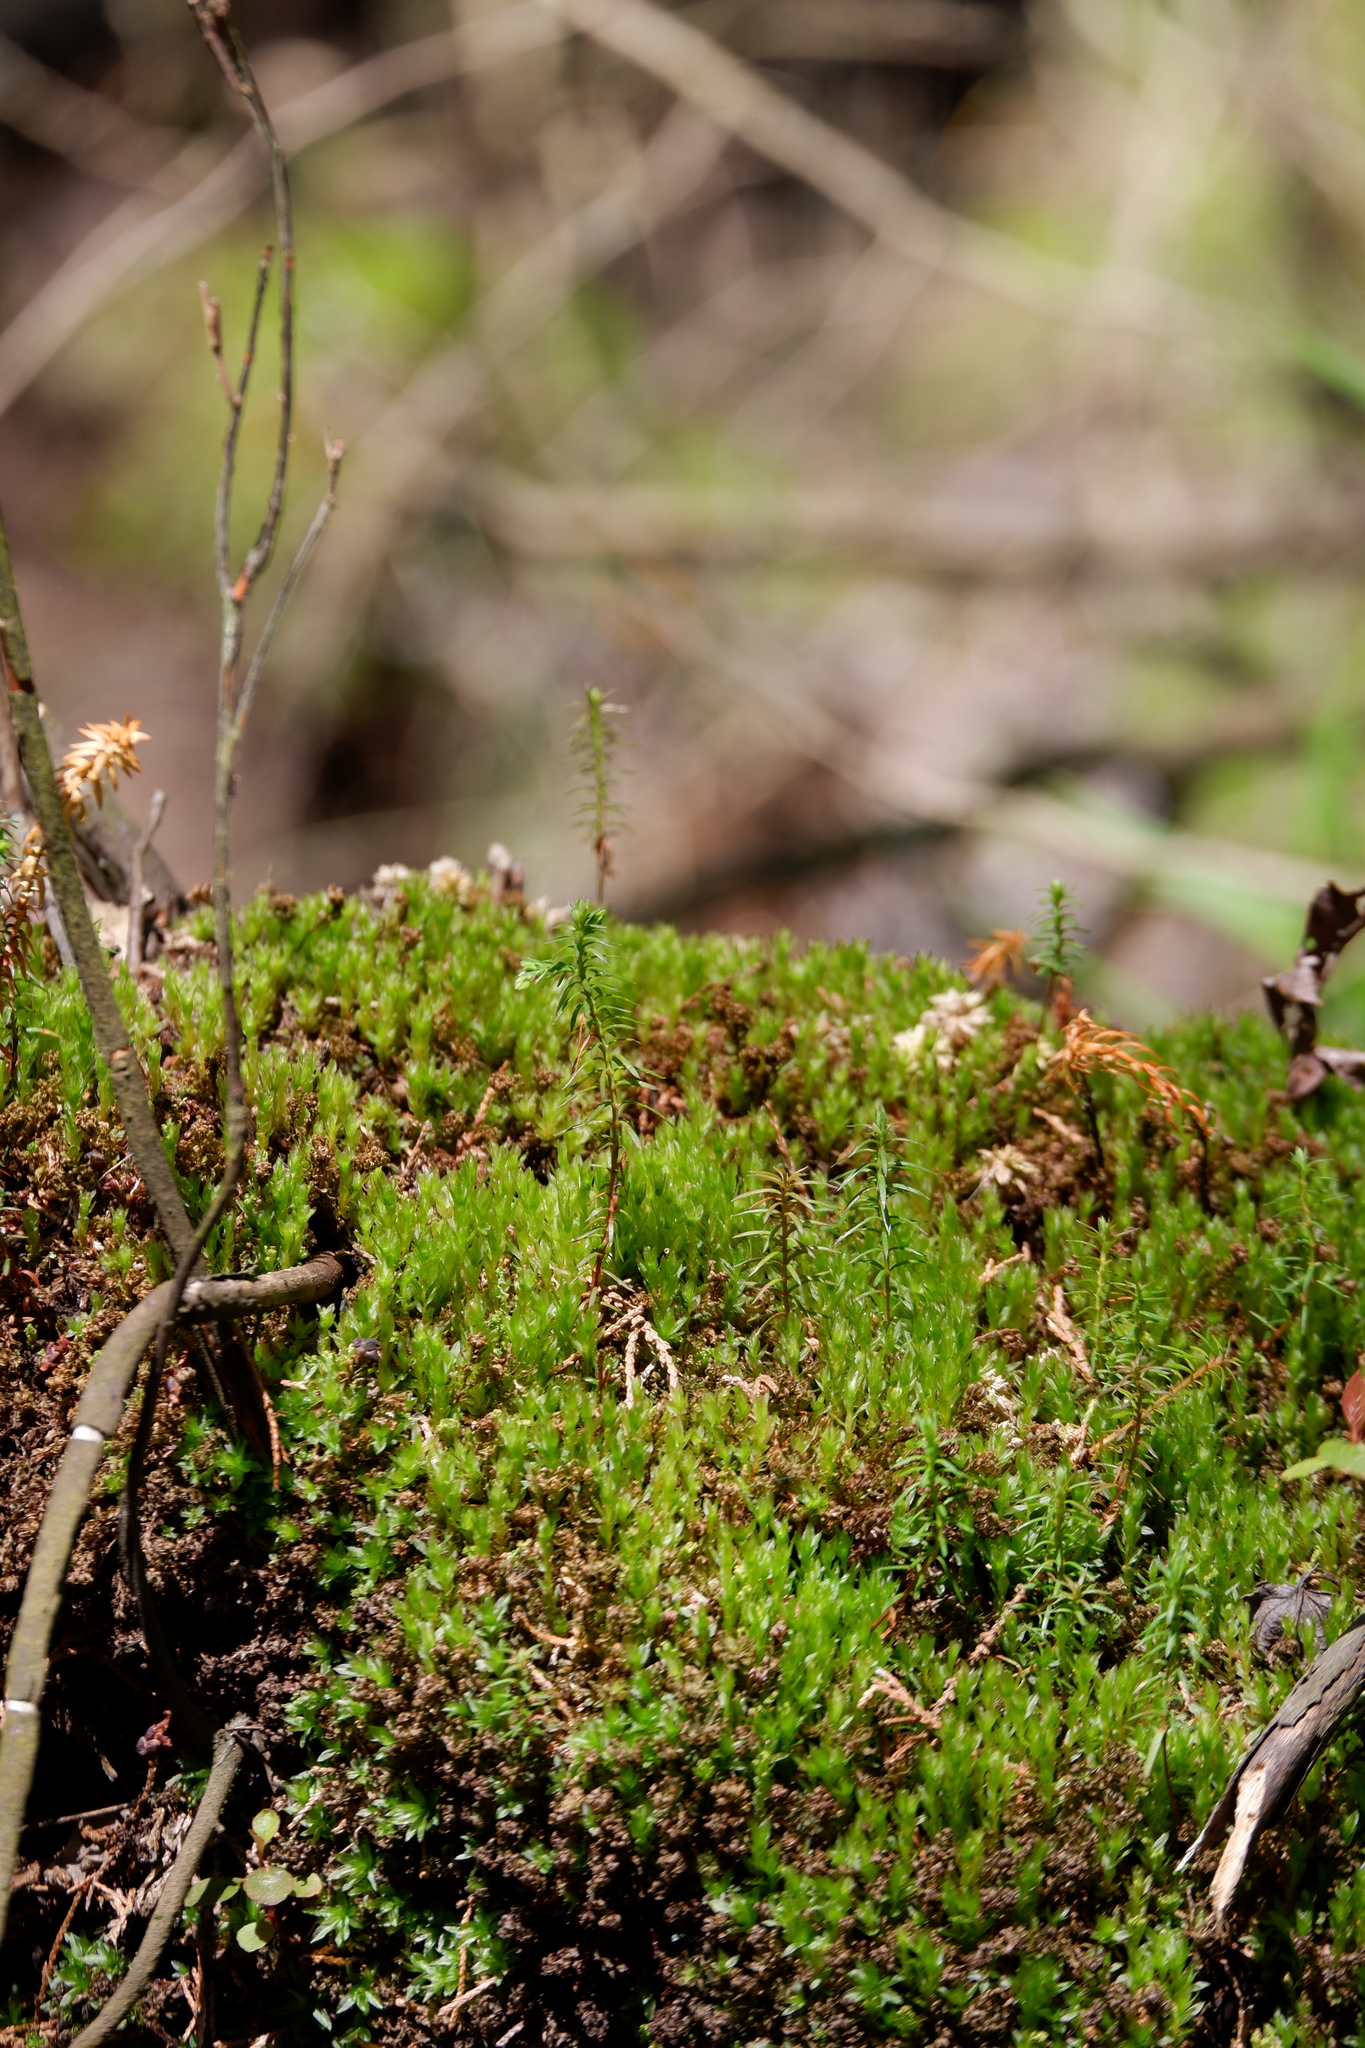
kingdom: Plantae
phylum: Tracheophyta
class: Pinopsida
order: Pinales
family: Cupressaceae
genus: Chamaecyparis
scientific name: Chamaecyparis thyoides
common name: Atlantic white cedar
